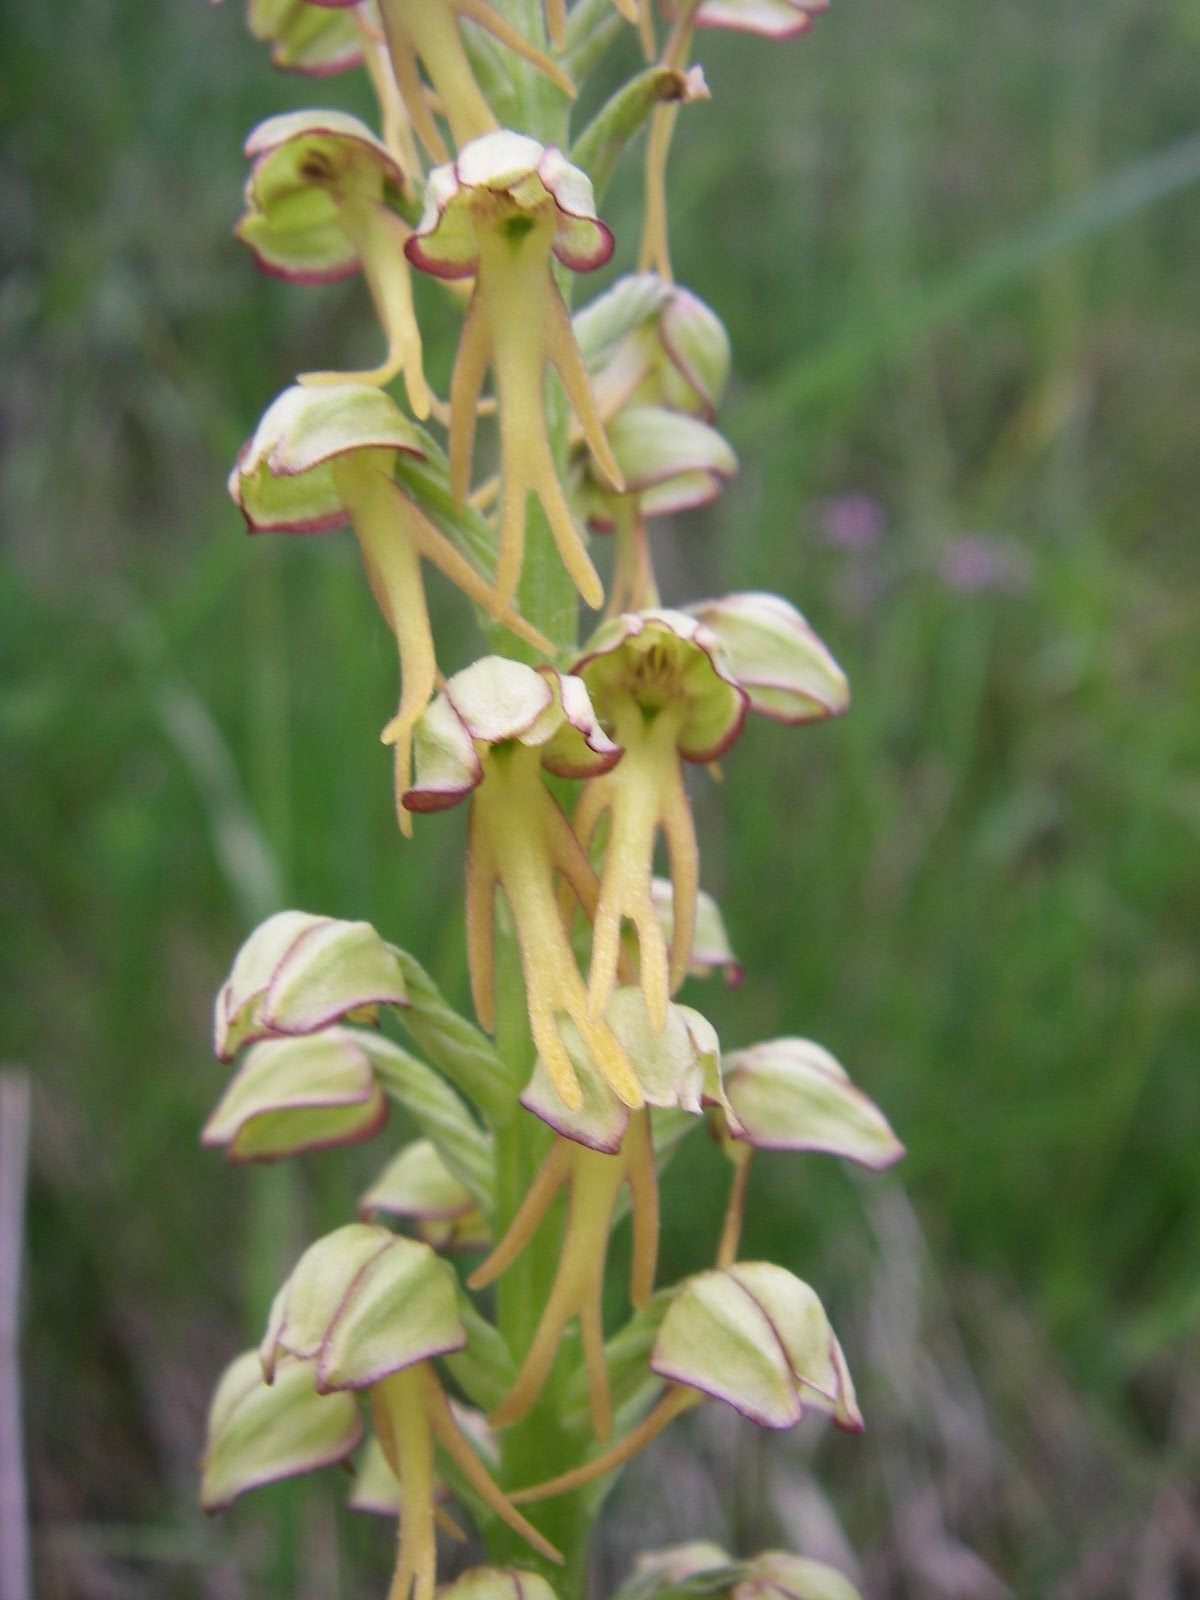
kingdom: Plantae
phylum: Tracheophyta
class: Liliopsida
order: Asparagales
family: Orchidaceae
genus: Orchis
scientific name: Orchis anthropophora
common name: Man orchid
